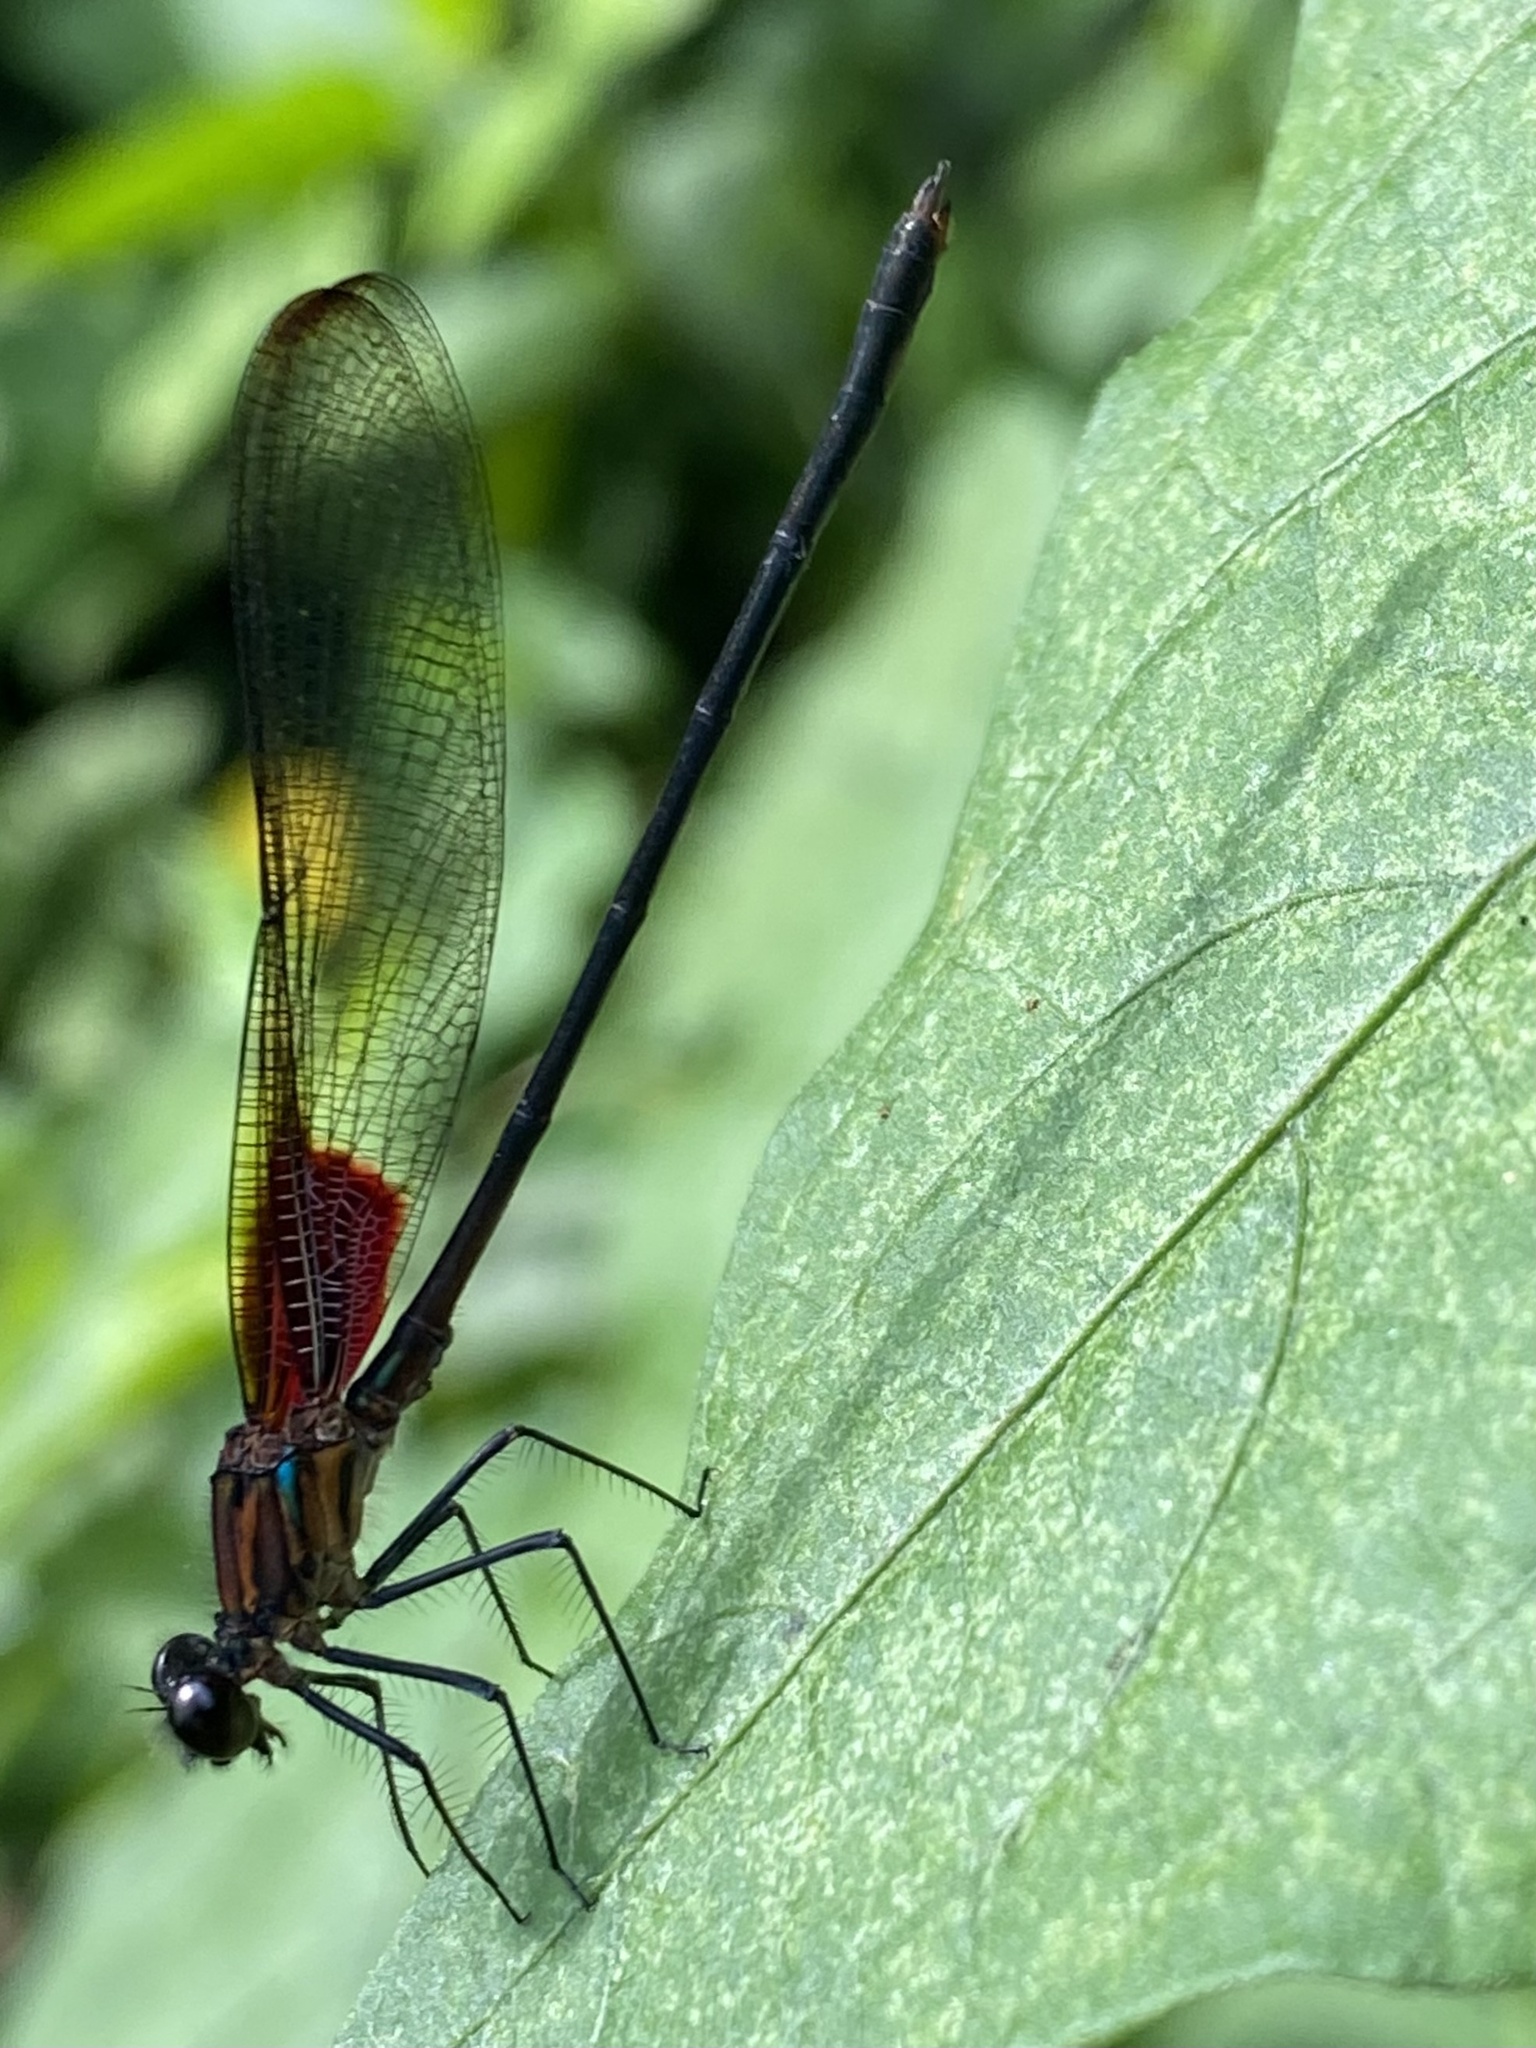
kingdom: Animalia
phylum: Arthropoda
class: Insecta
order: Odonata
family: Calopterygidae
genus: Hetaerina
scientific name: Hetaerina cruentata
